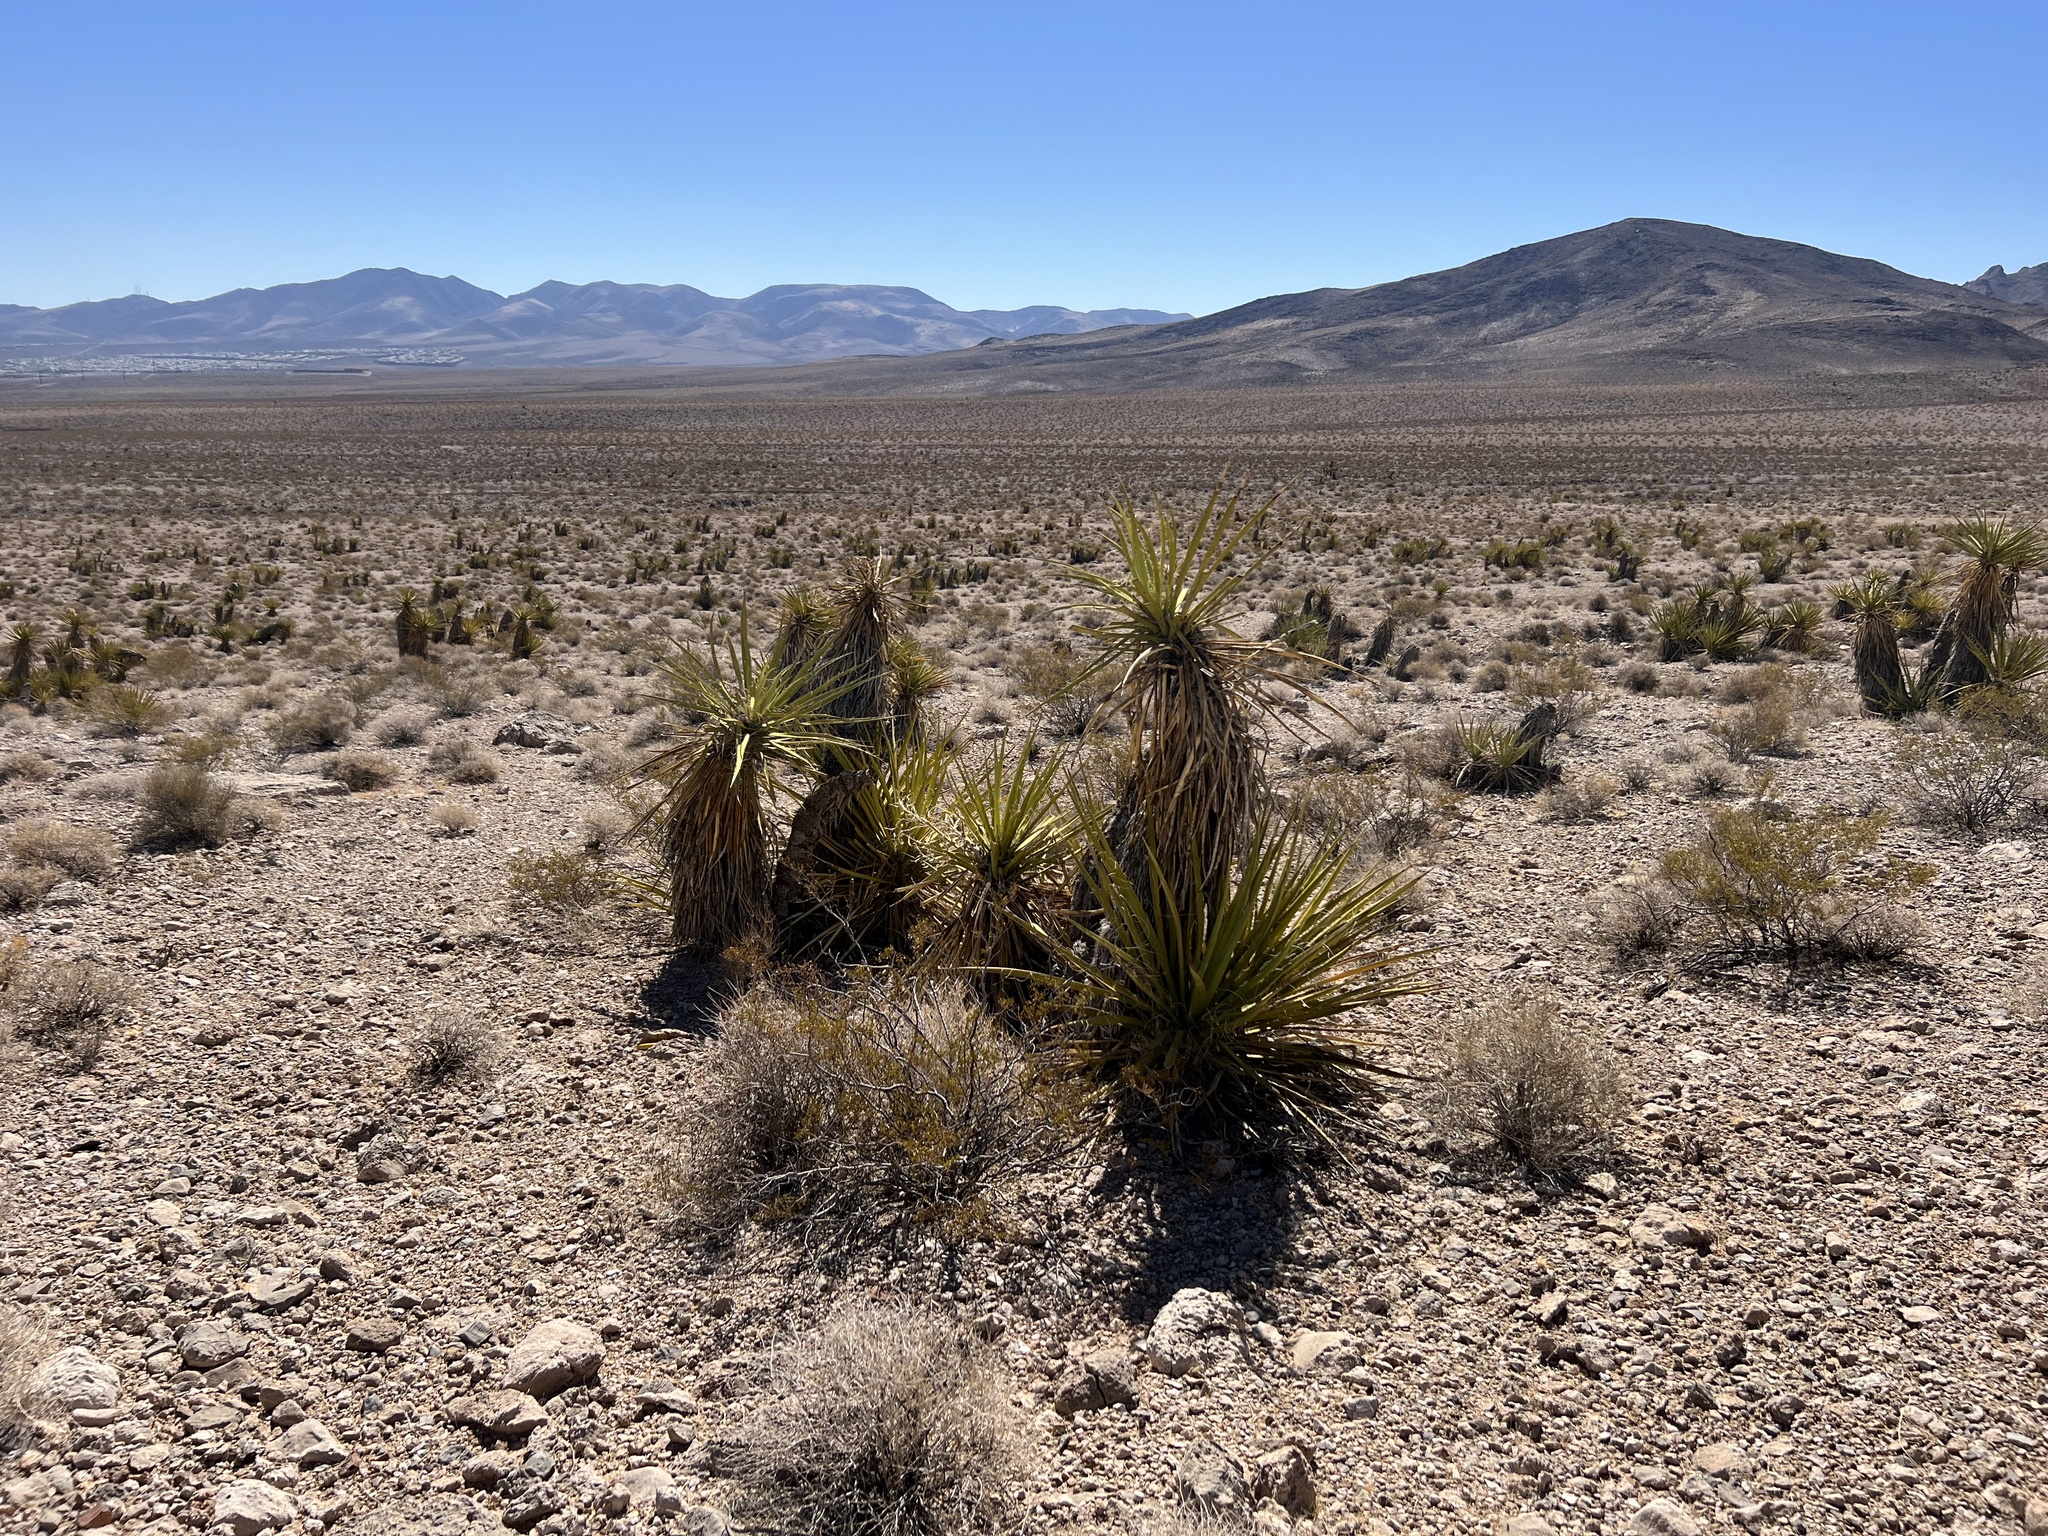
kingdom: Plantae
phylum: Tracheophyta
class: Liliopsida
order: Asparagales
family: Asparagaceae
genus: Yucca
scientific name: Yucca schidigera
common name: Mojave yucca
